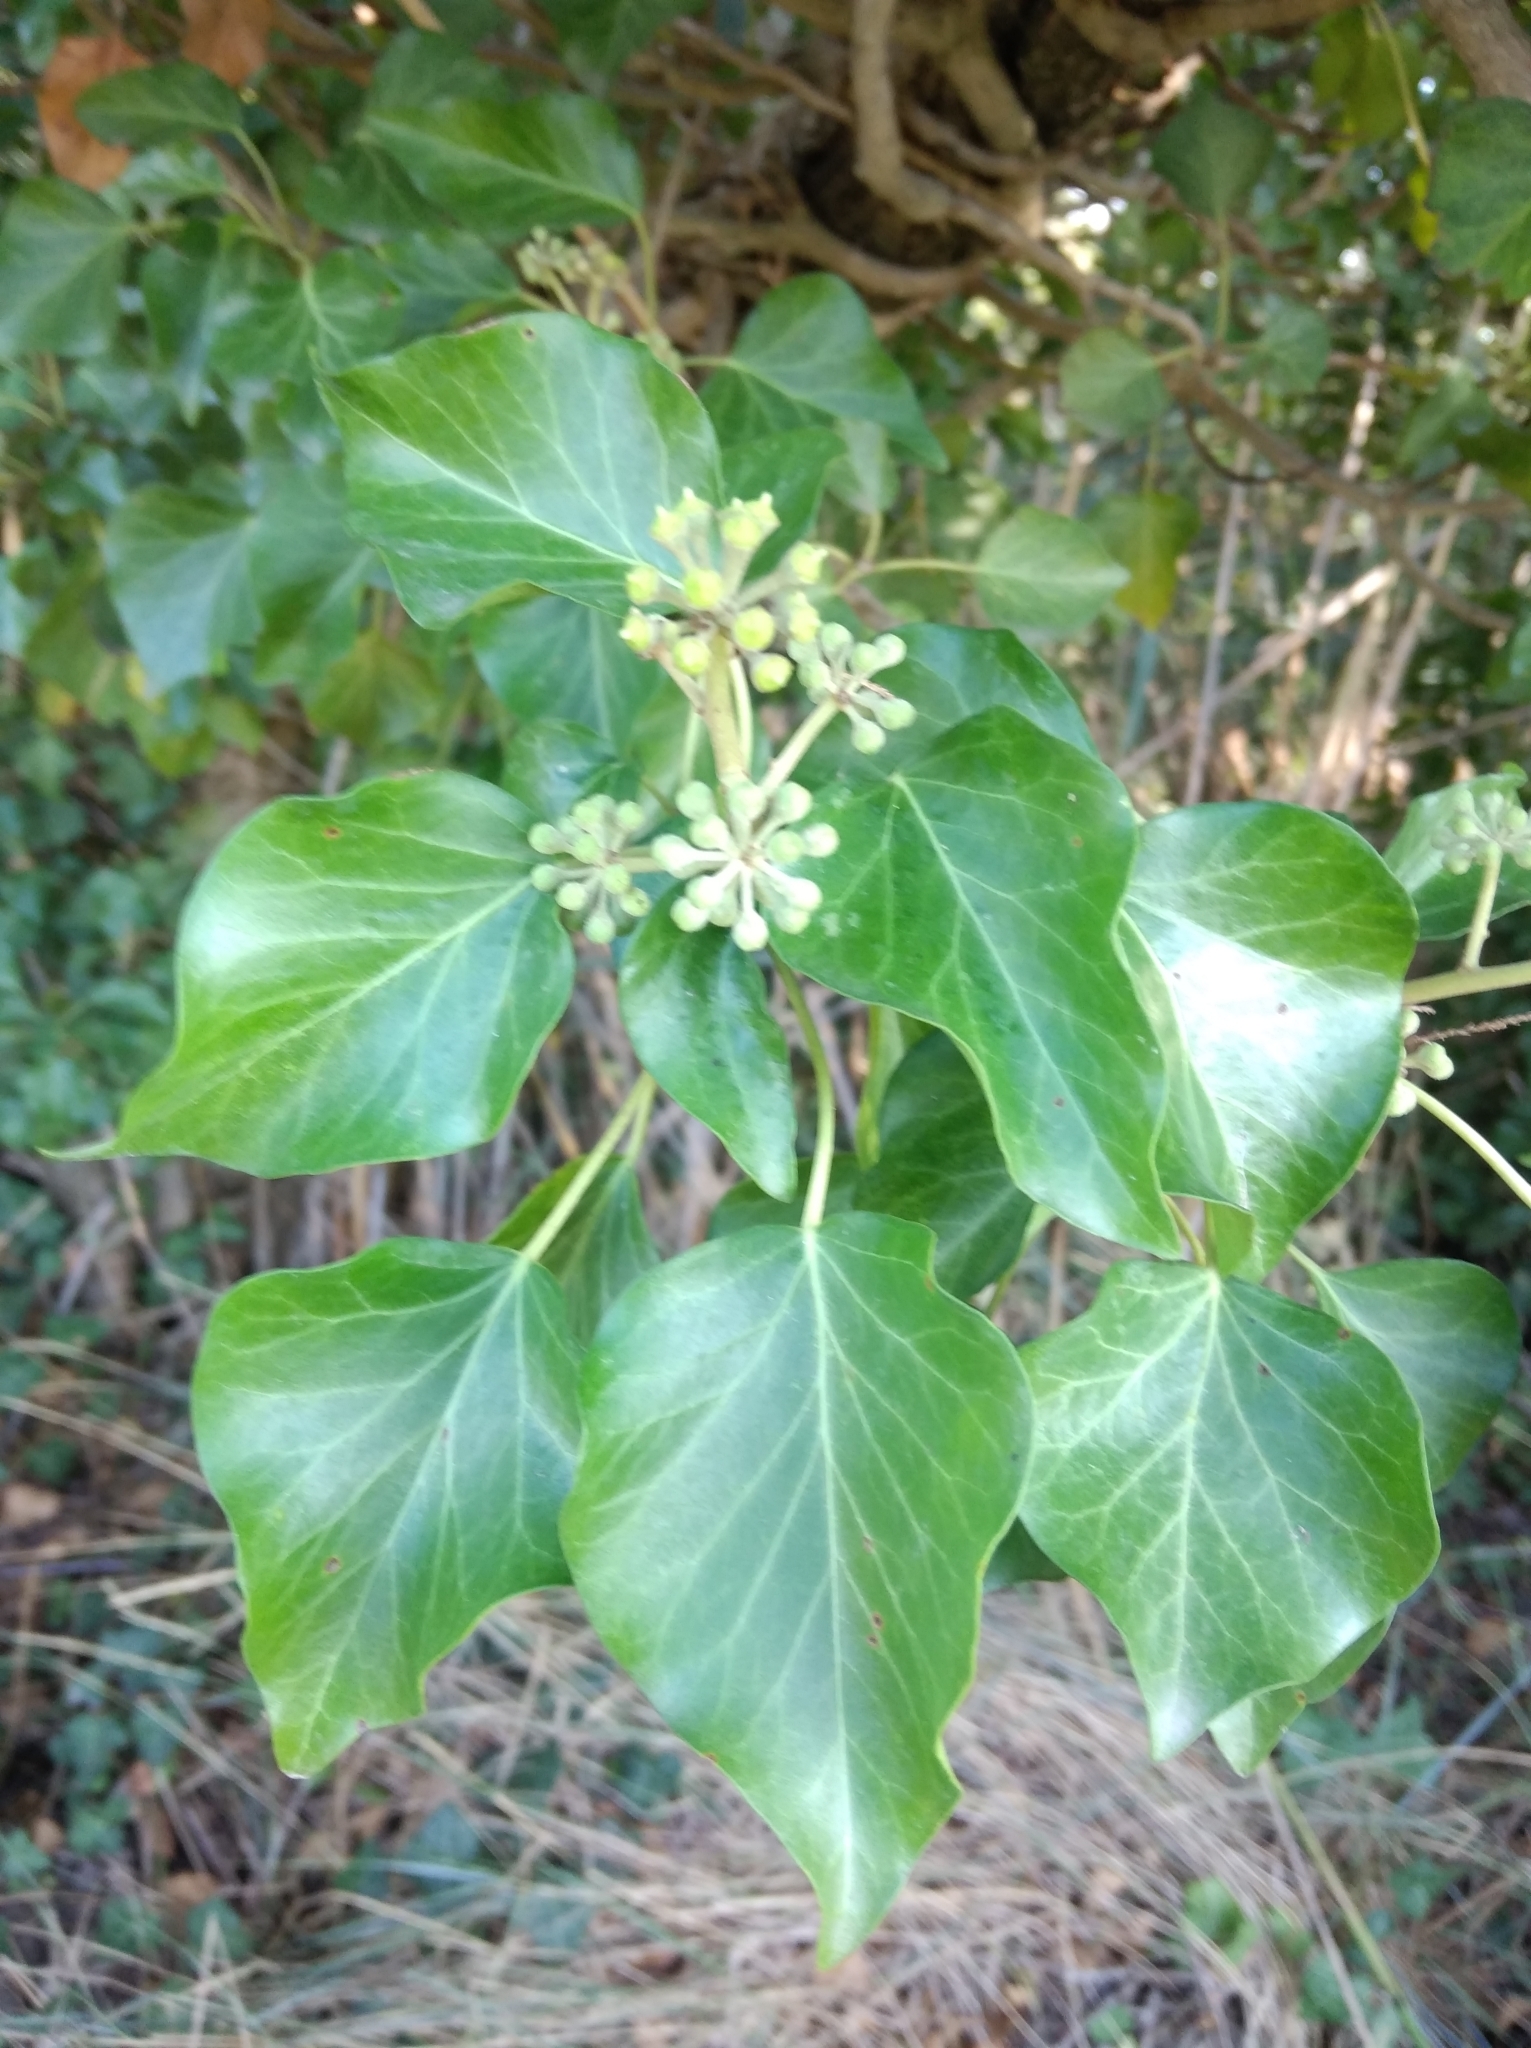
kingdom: Plantae
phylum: Tracheophyta
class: Magnoliopsida
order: Apiales
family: Araliaceae
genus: Hedera
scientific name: Hedera helix
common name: Ivy
